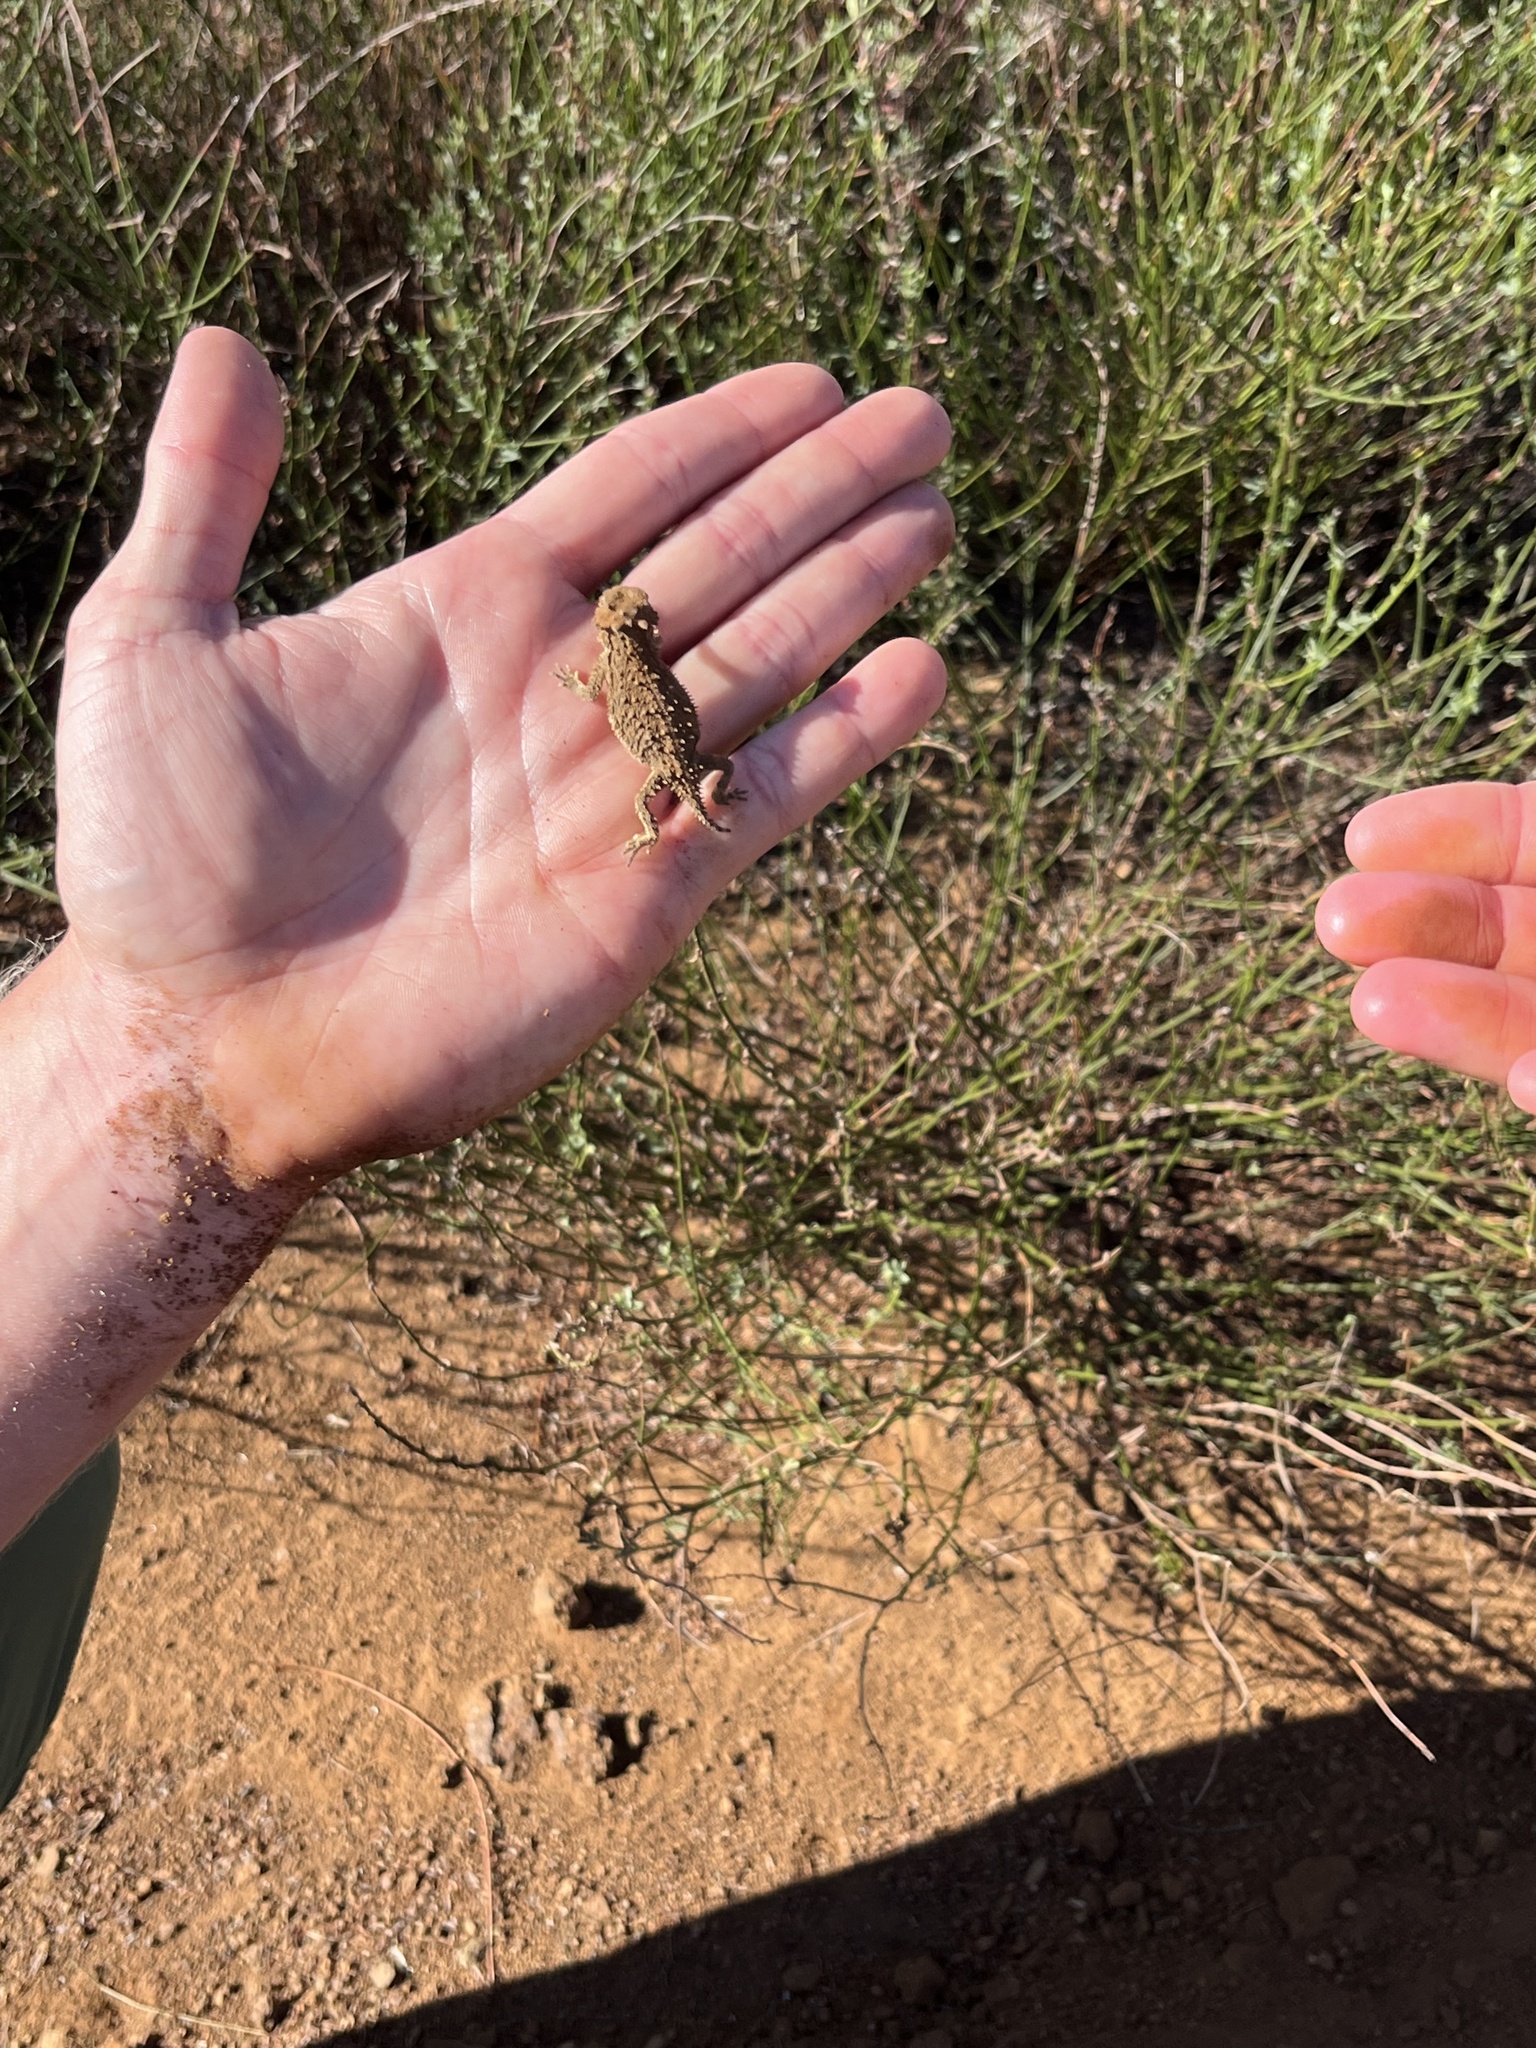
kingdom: Animalia
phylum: Chordata
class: Squamata
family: Phrynosomatidae
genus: Phrynosoma
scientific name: Phrynosoma blainvillii
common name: San diego horned lizard
